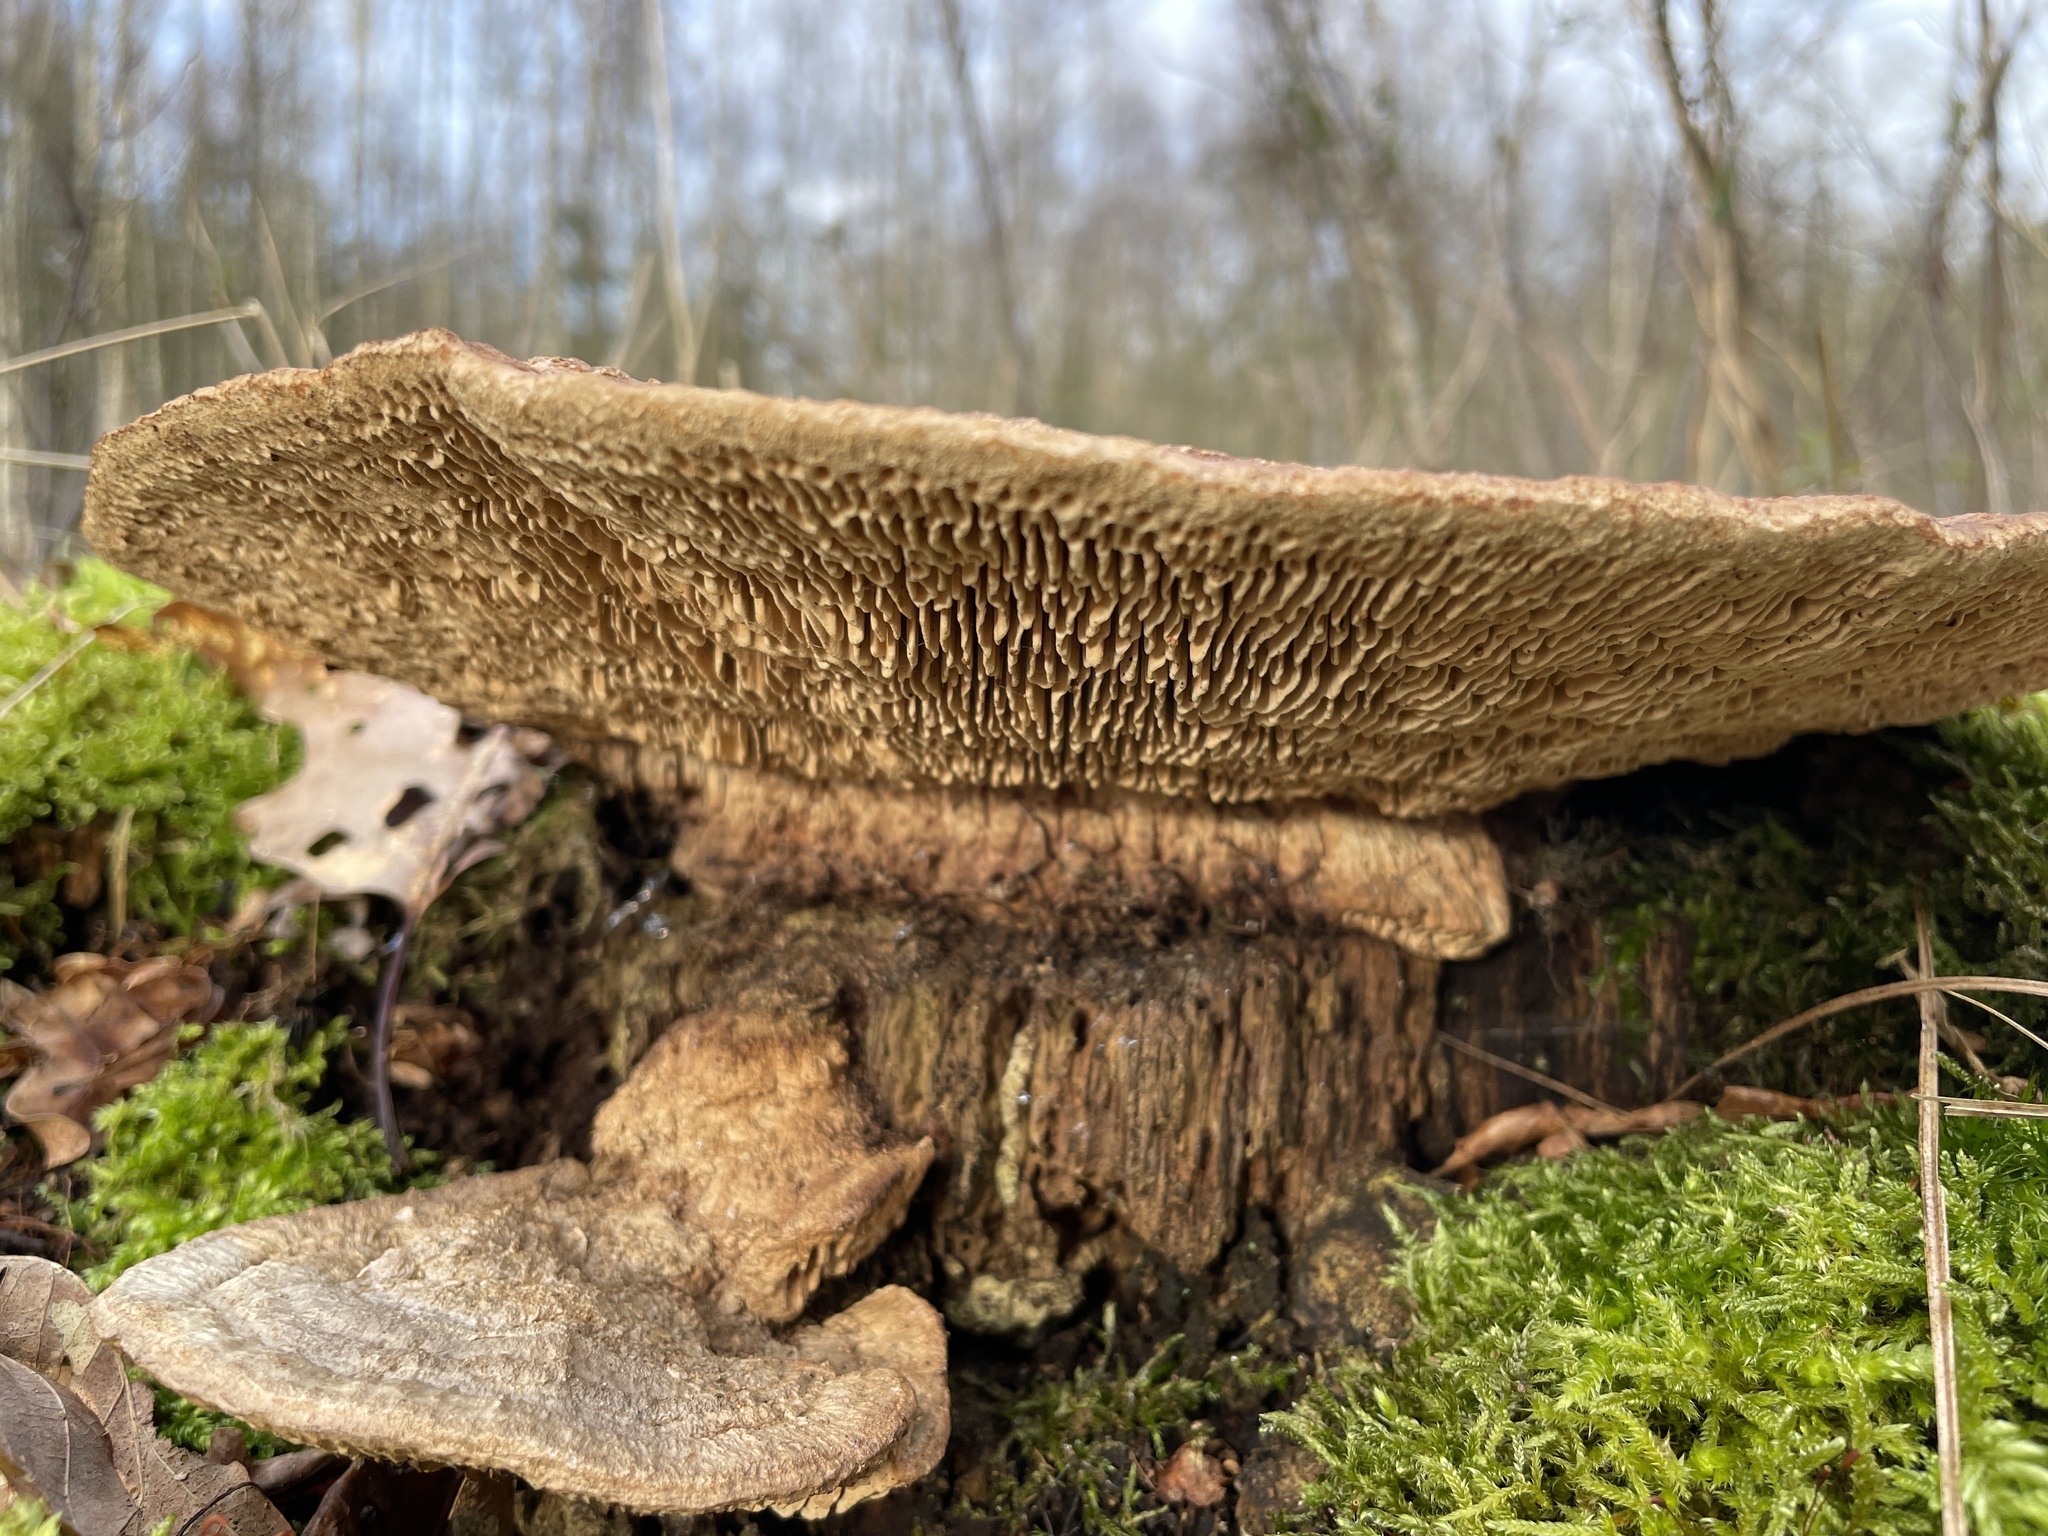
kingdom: Fungi
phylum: Basidiomycota
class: Agaricomycetes
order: Polyporales
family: Fomitopsidaceae
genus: Fomitopsis
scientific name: Fomitopsis
